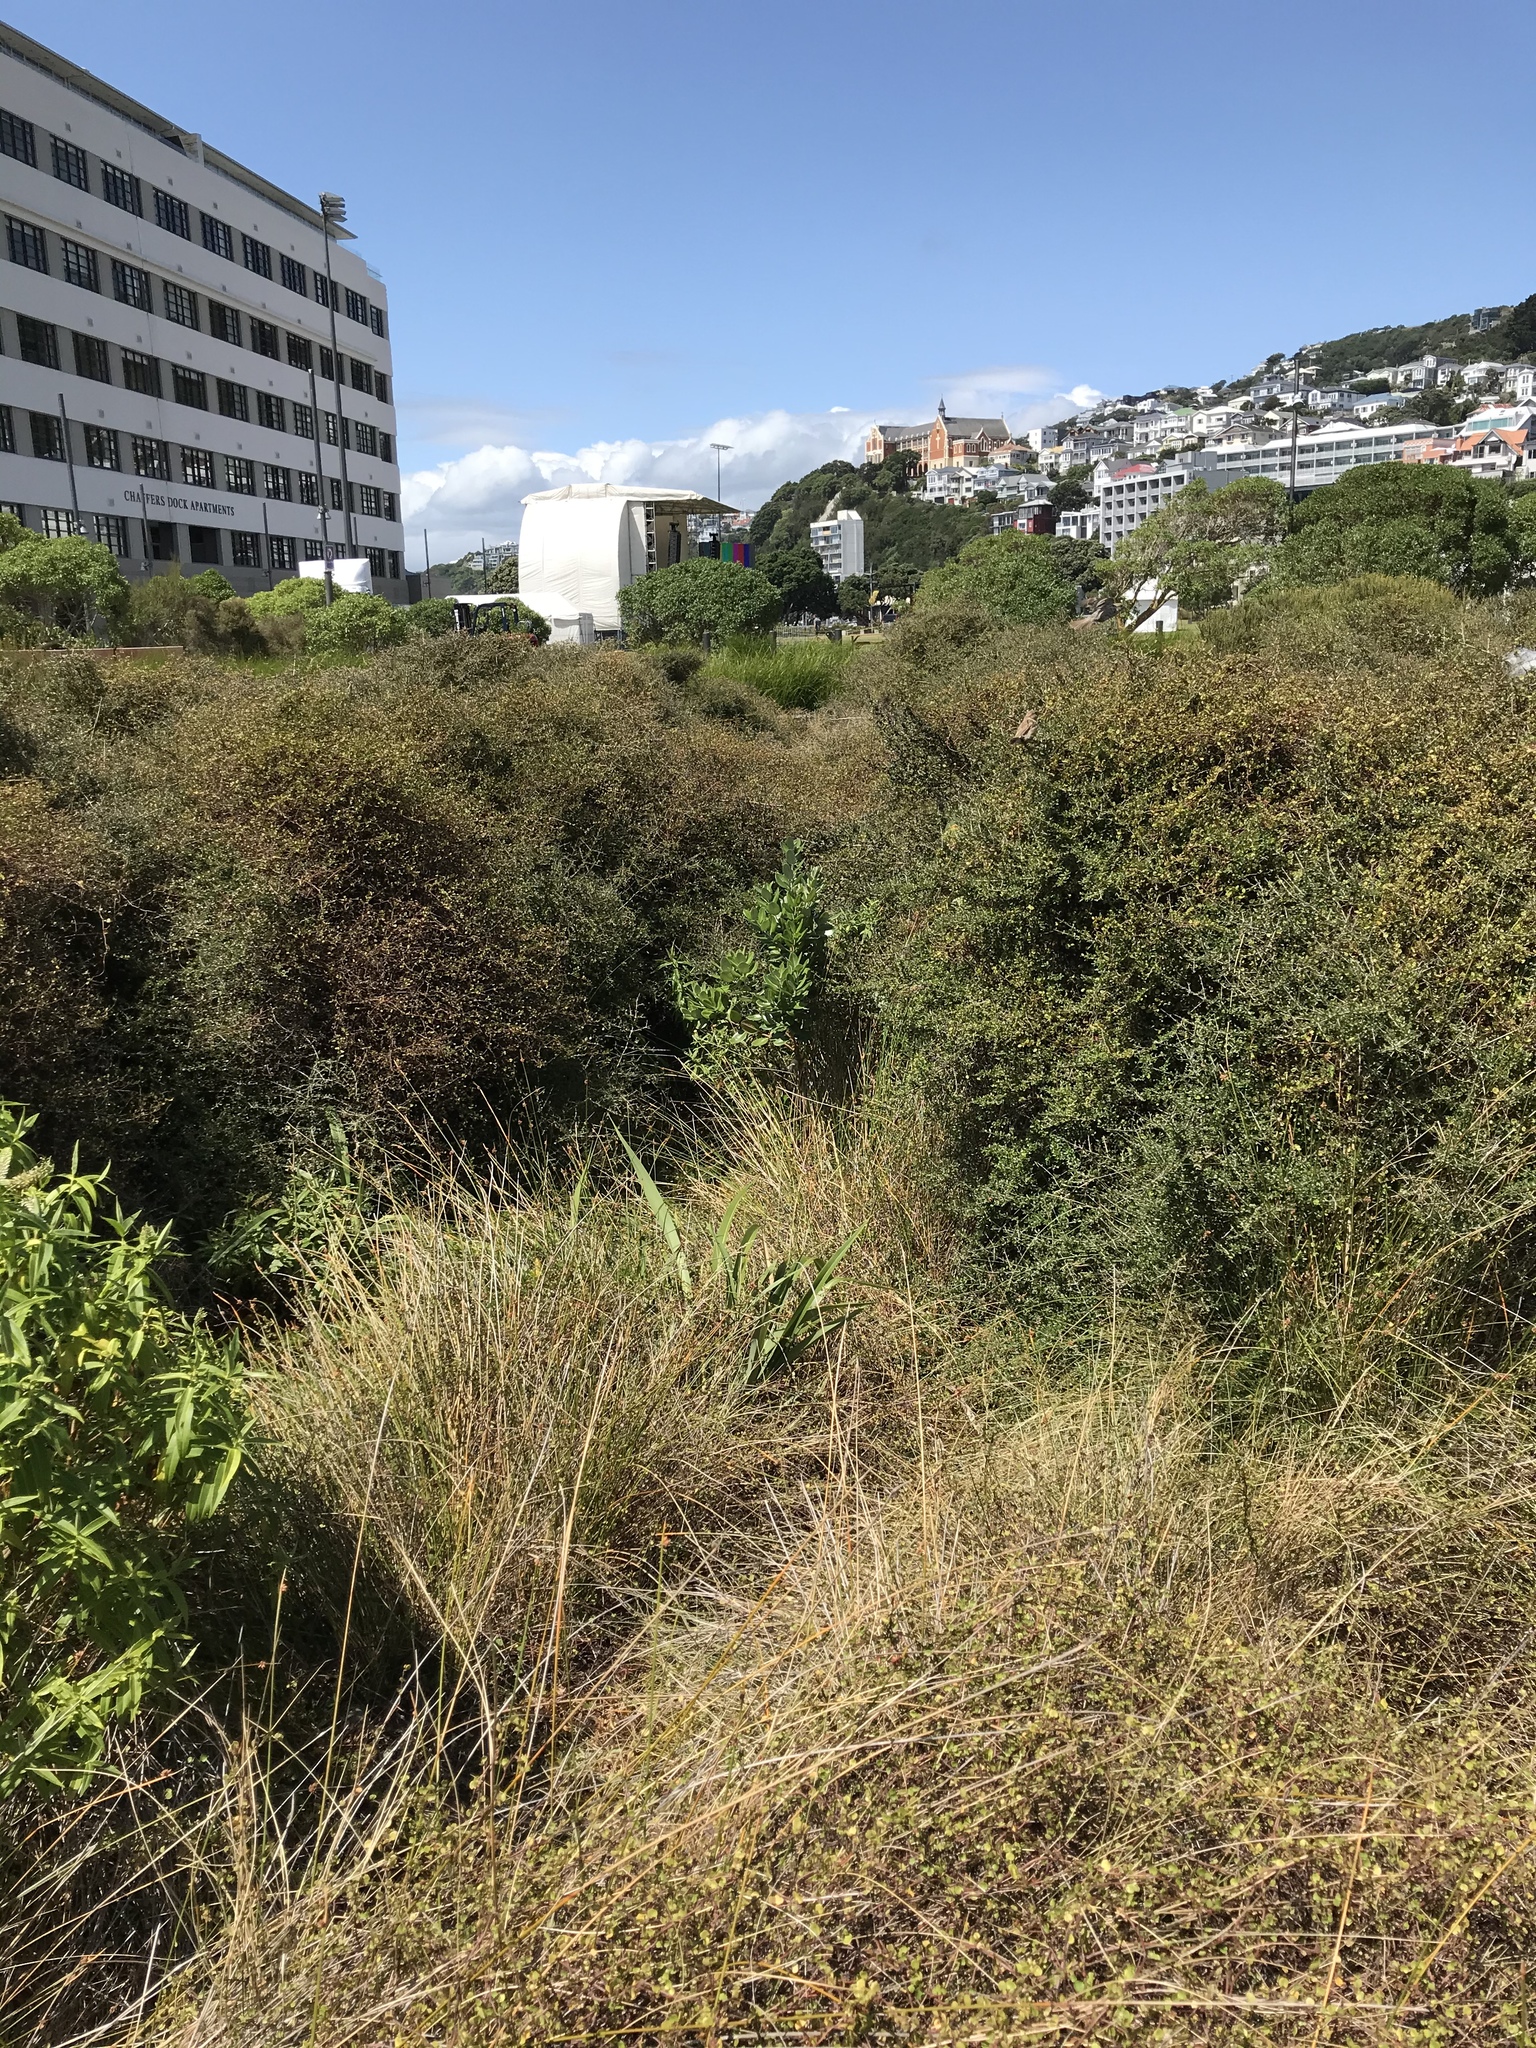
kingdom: Plantae
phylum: Tracheophyta
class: Magnoliopsida
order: Myrtales
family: Myrtaceae
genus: Metrosideros
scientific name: Metrosideros excelsa
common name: New zealand christmastree
